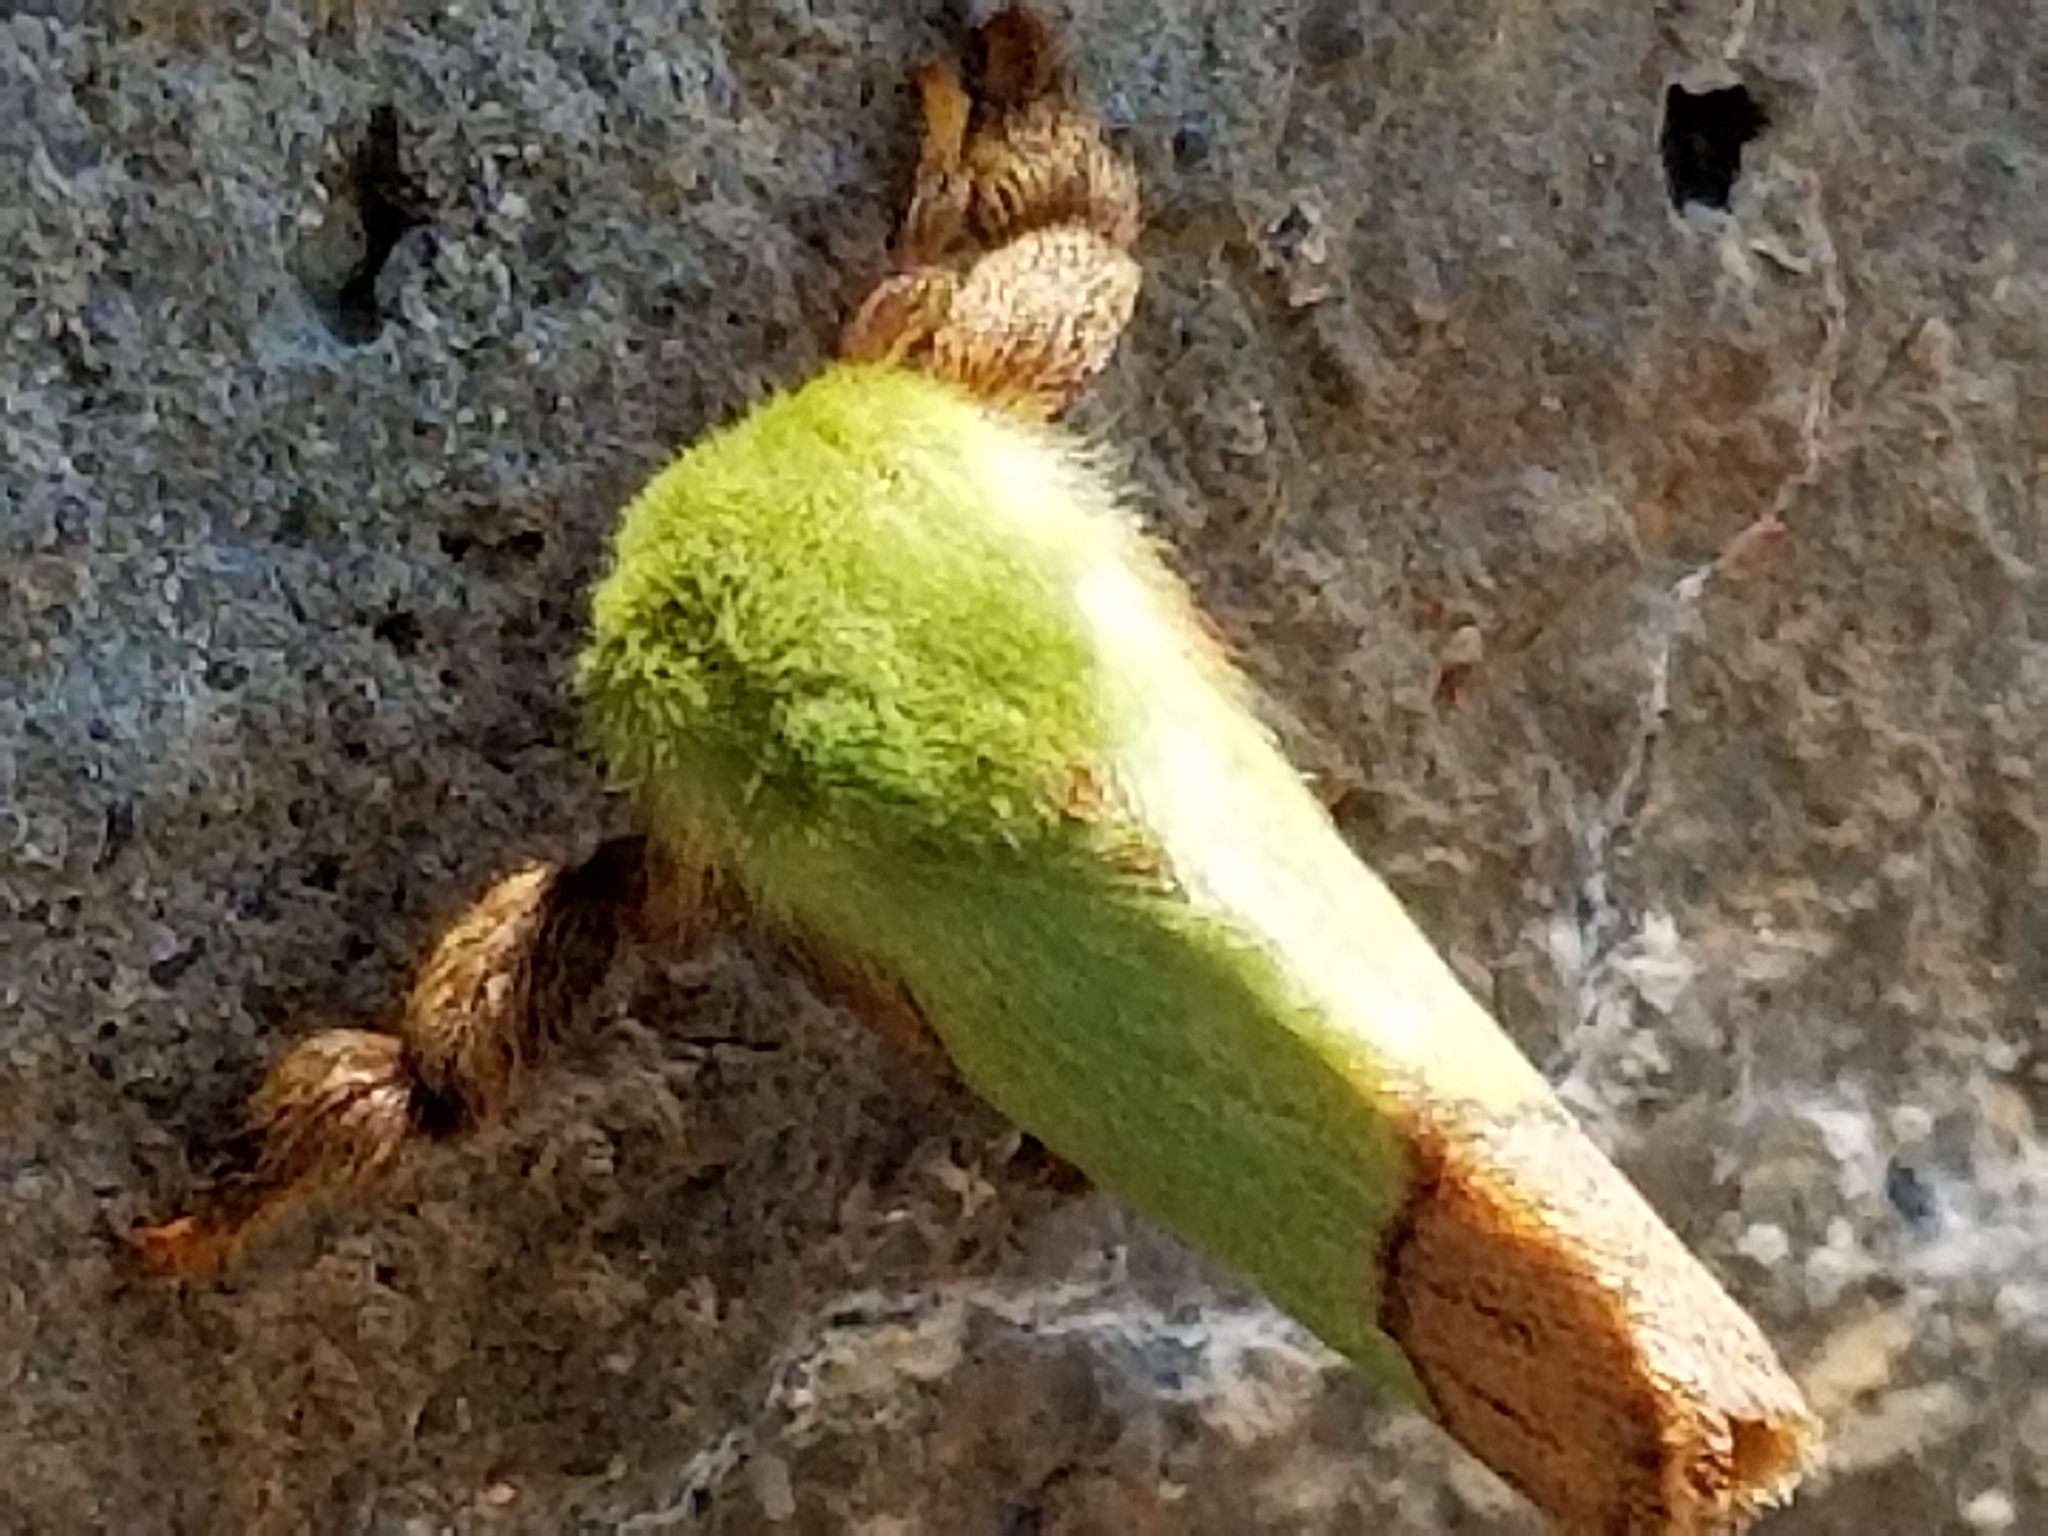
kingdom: Animalia
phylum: Arthropoda
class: Insecta
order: Lepidoptera
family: Limacodidae
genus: Parasa
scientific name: Parasa indetermina
